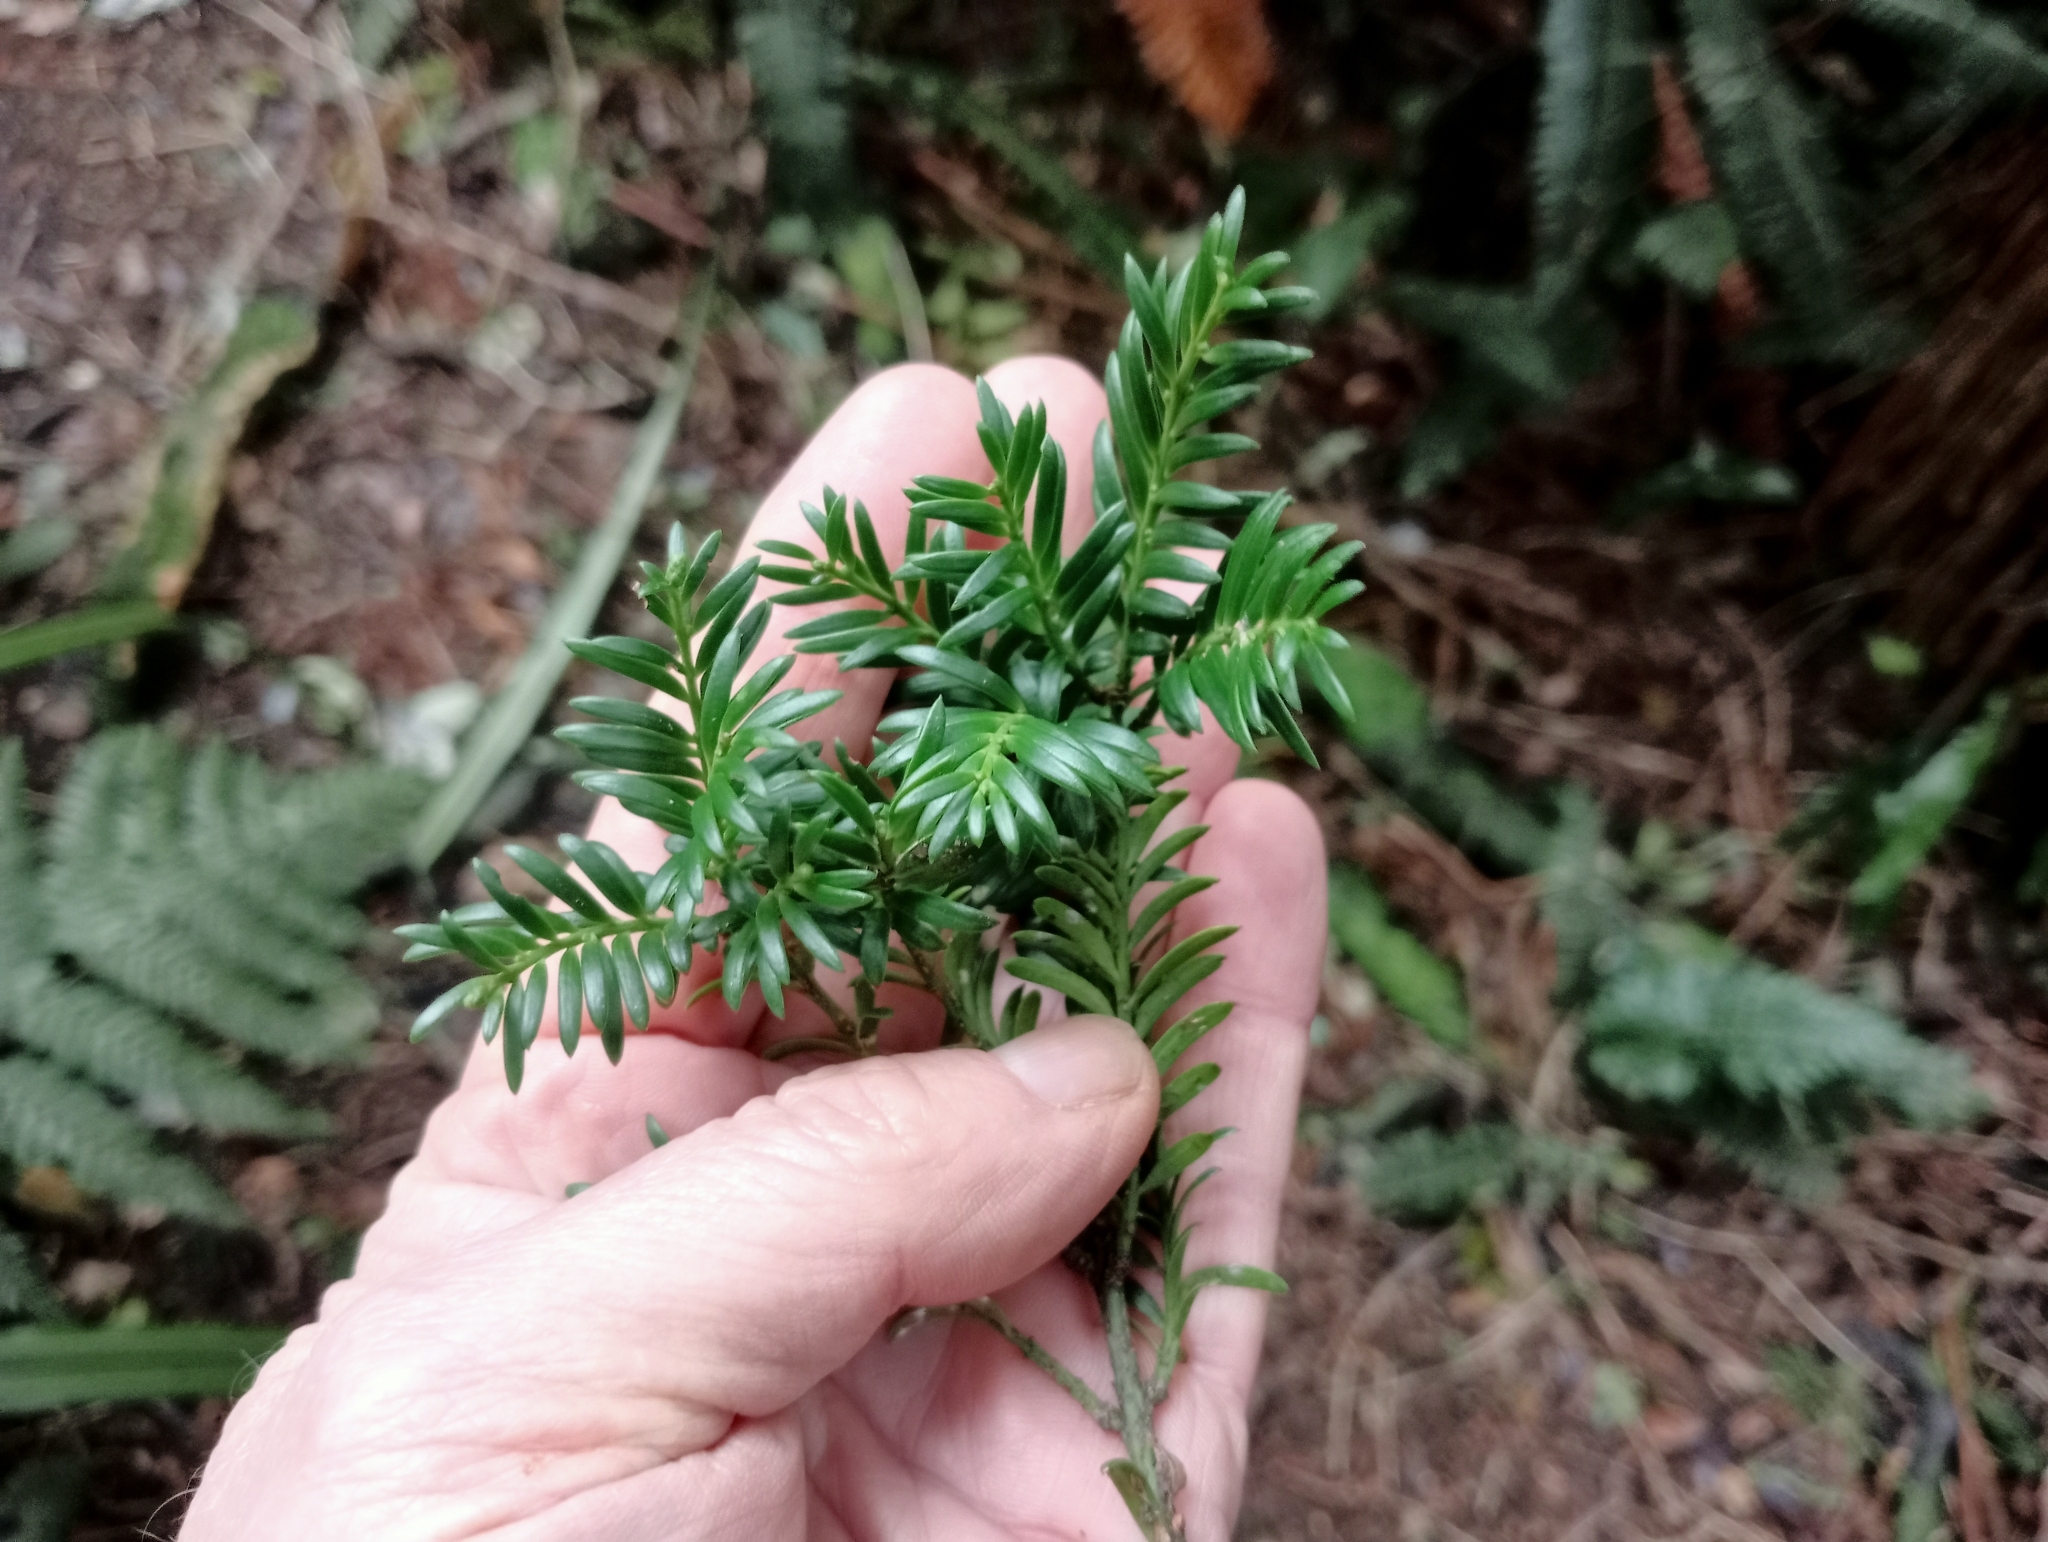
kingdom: Plantae
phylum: Tracheophyta
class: Pinopsida
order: Pinales
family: Podocarpaceae
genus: Prumnopitys
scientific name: Prumnopitys ferruginea
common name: Brown pine
